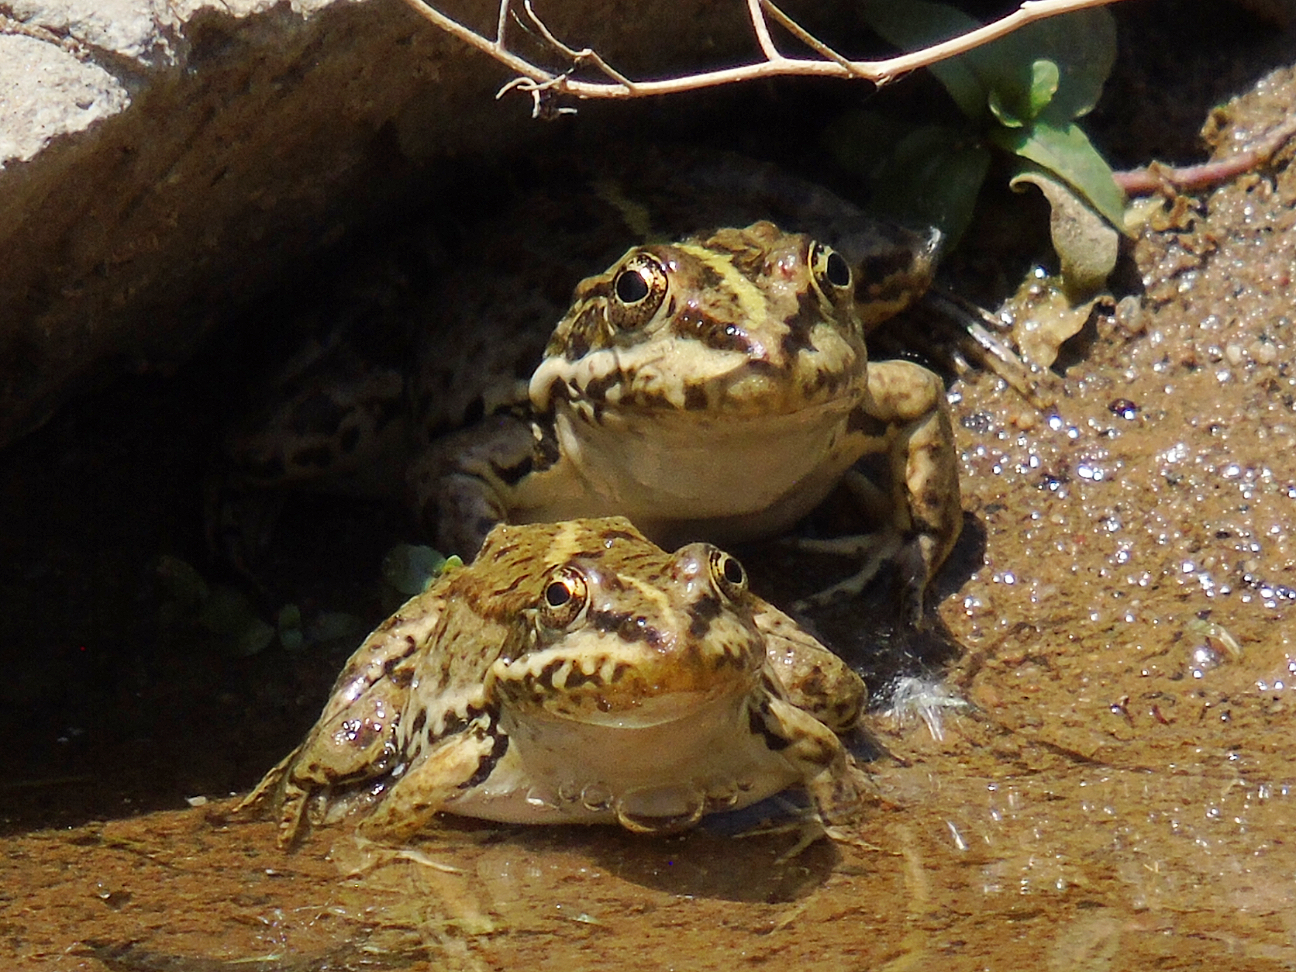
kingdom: Animalia
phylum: Chordata
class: Amphibia
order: Anura
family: Ranidae
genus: Pelophylax
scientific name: Pelophylax ridibundus
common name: Marsh frog
